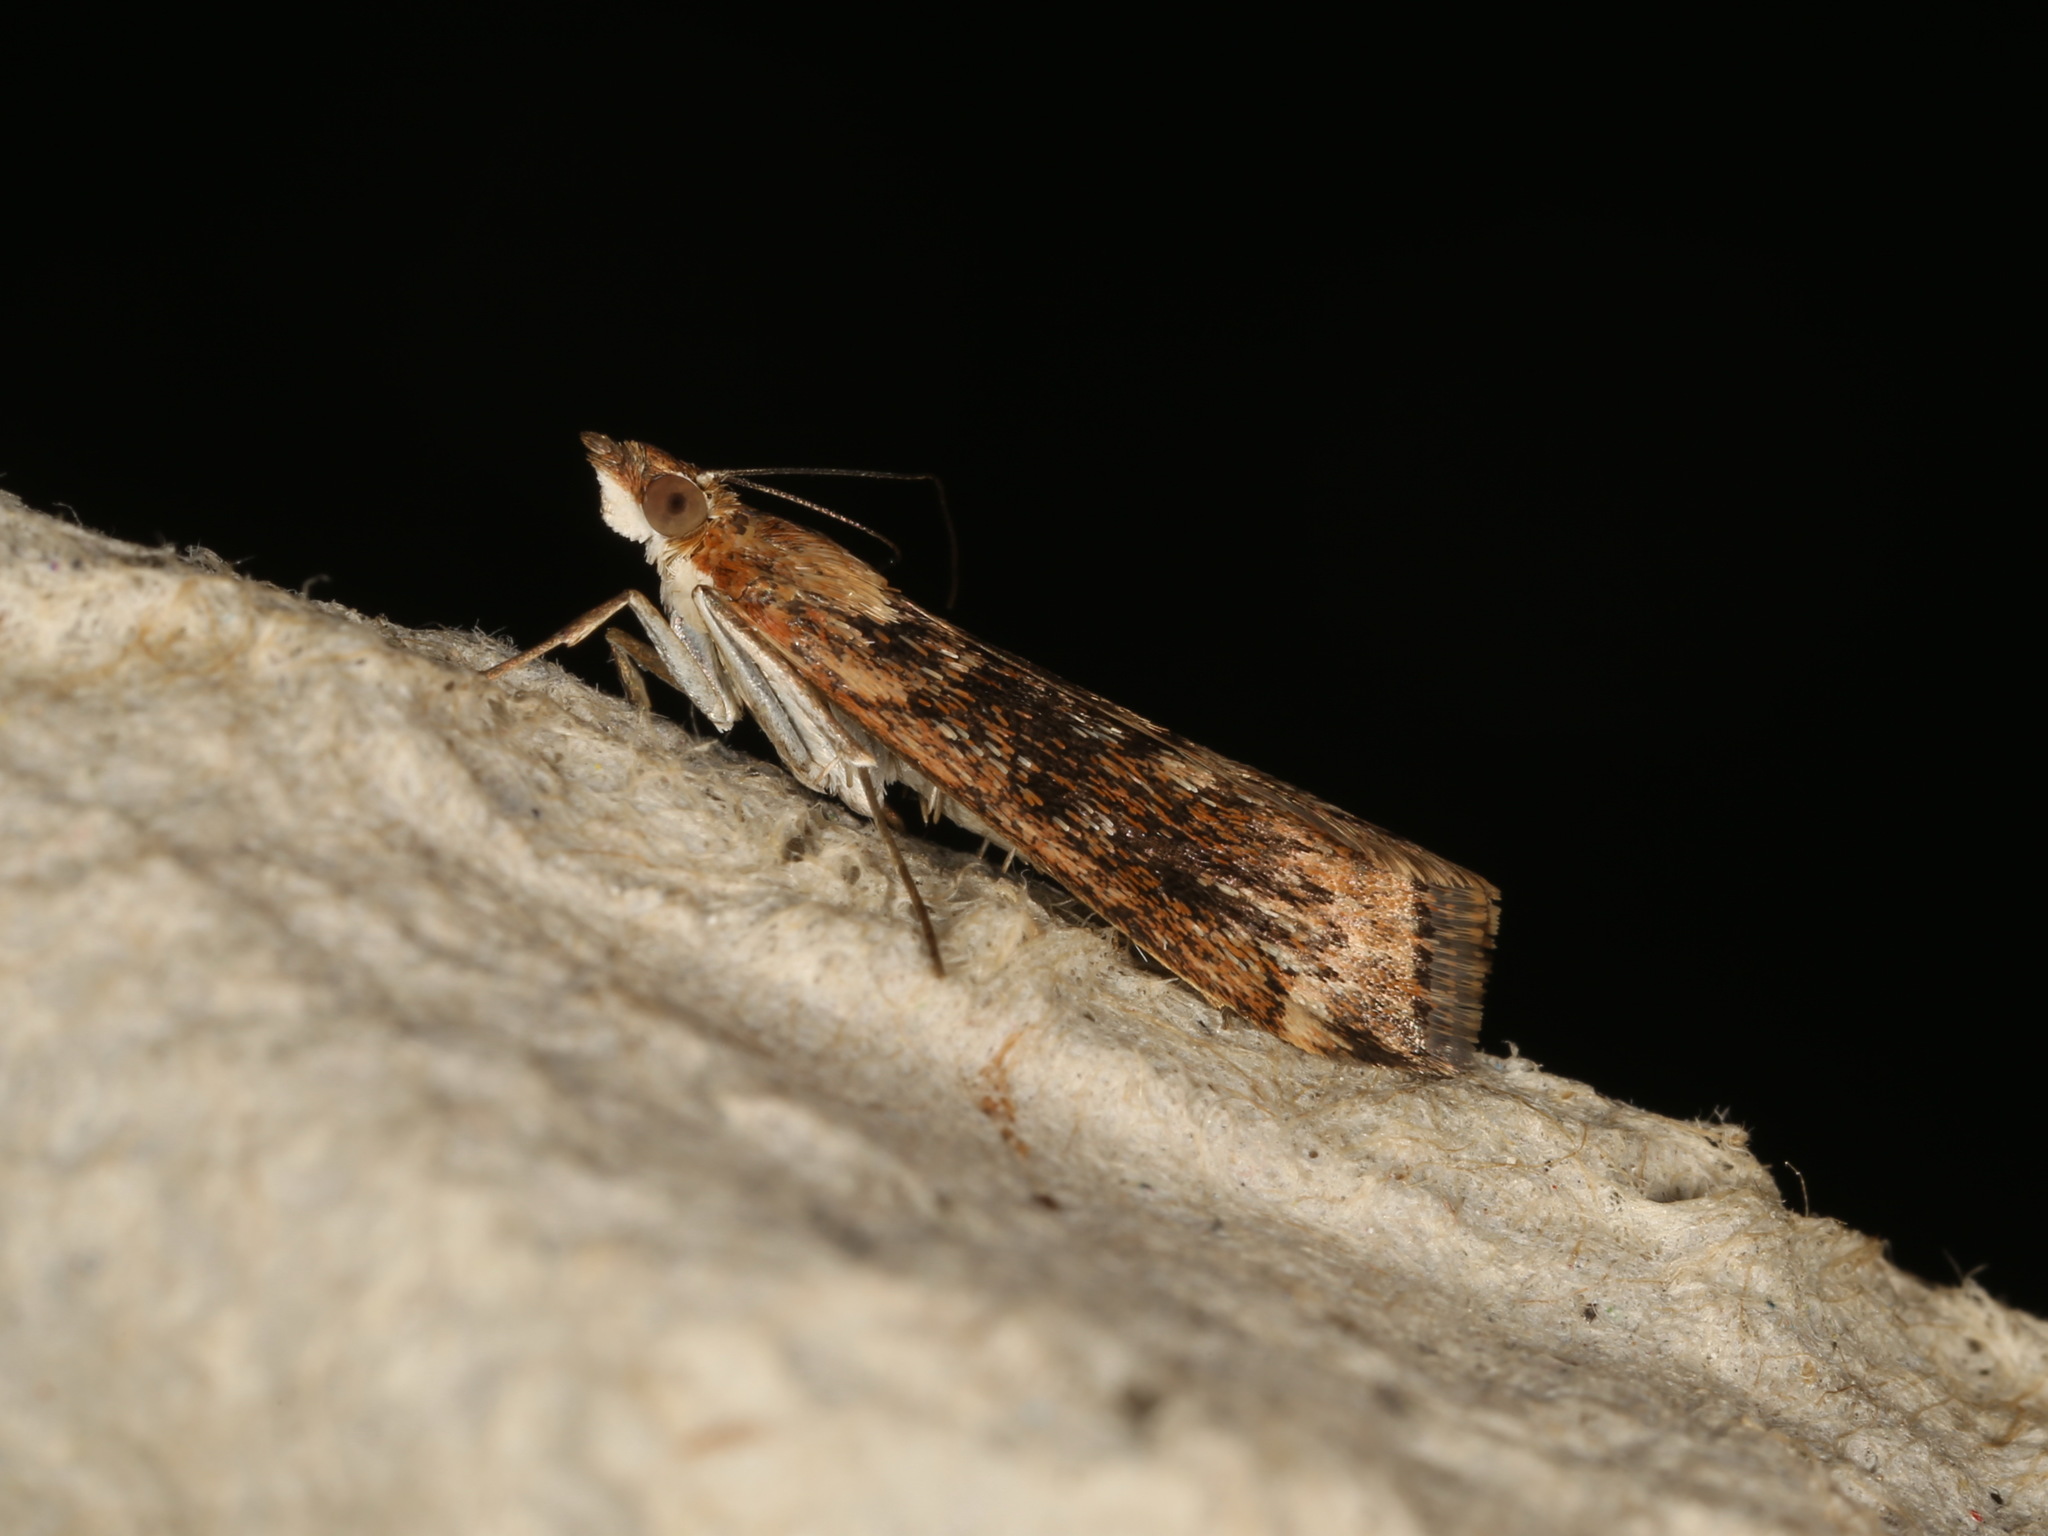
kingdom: Animalia
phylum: Arthropoda
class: Insecta
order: Lepidoptera
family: Crambidae
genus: Achyra
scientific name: Achyra affinitalis
